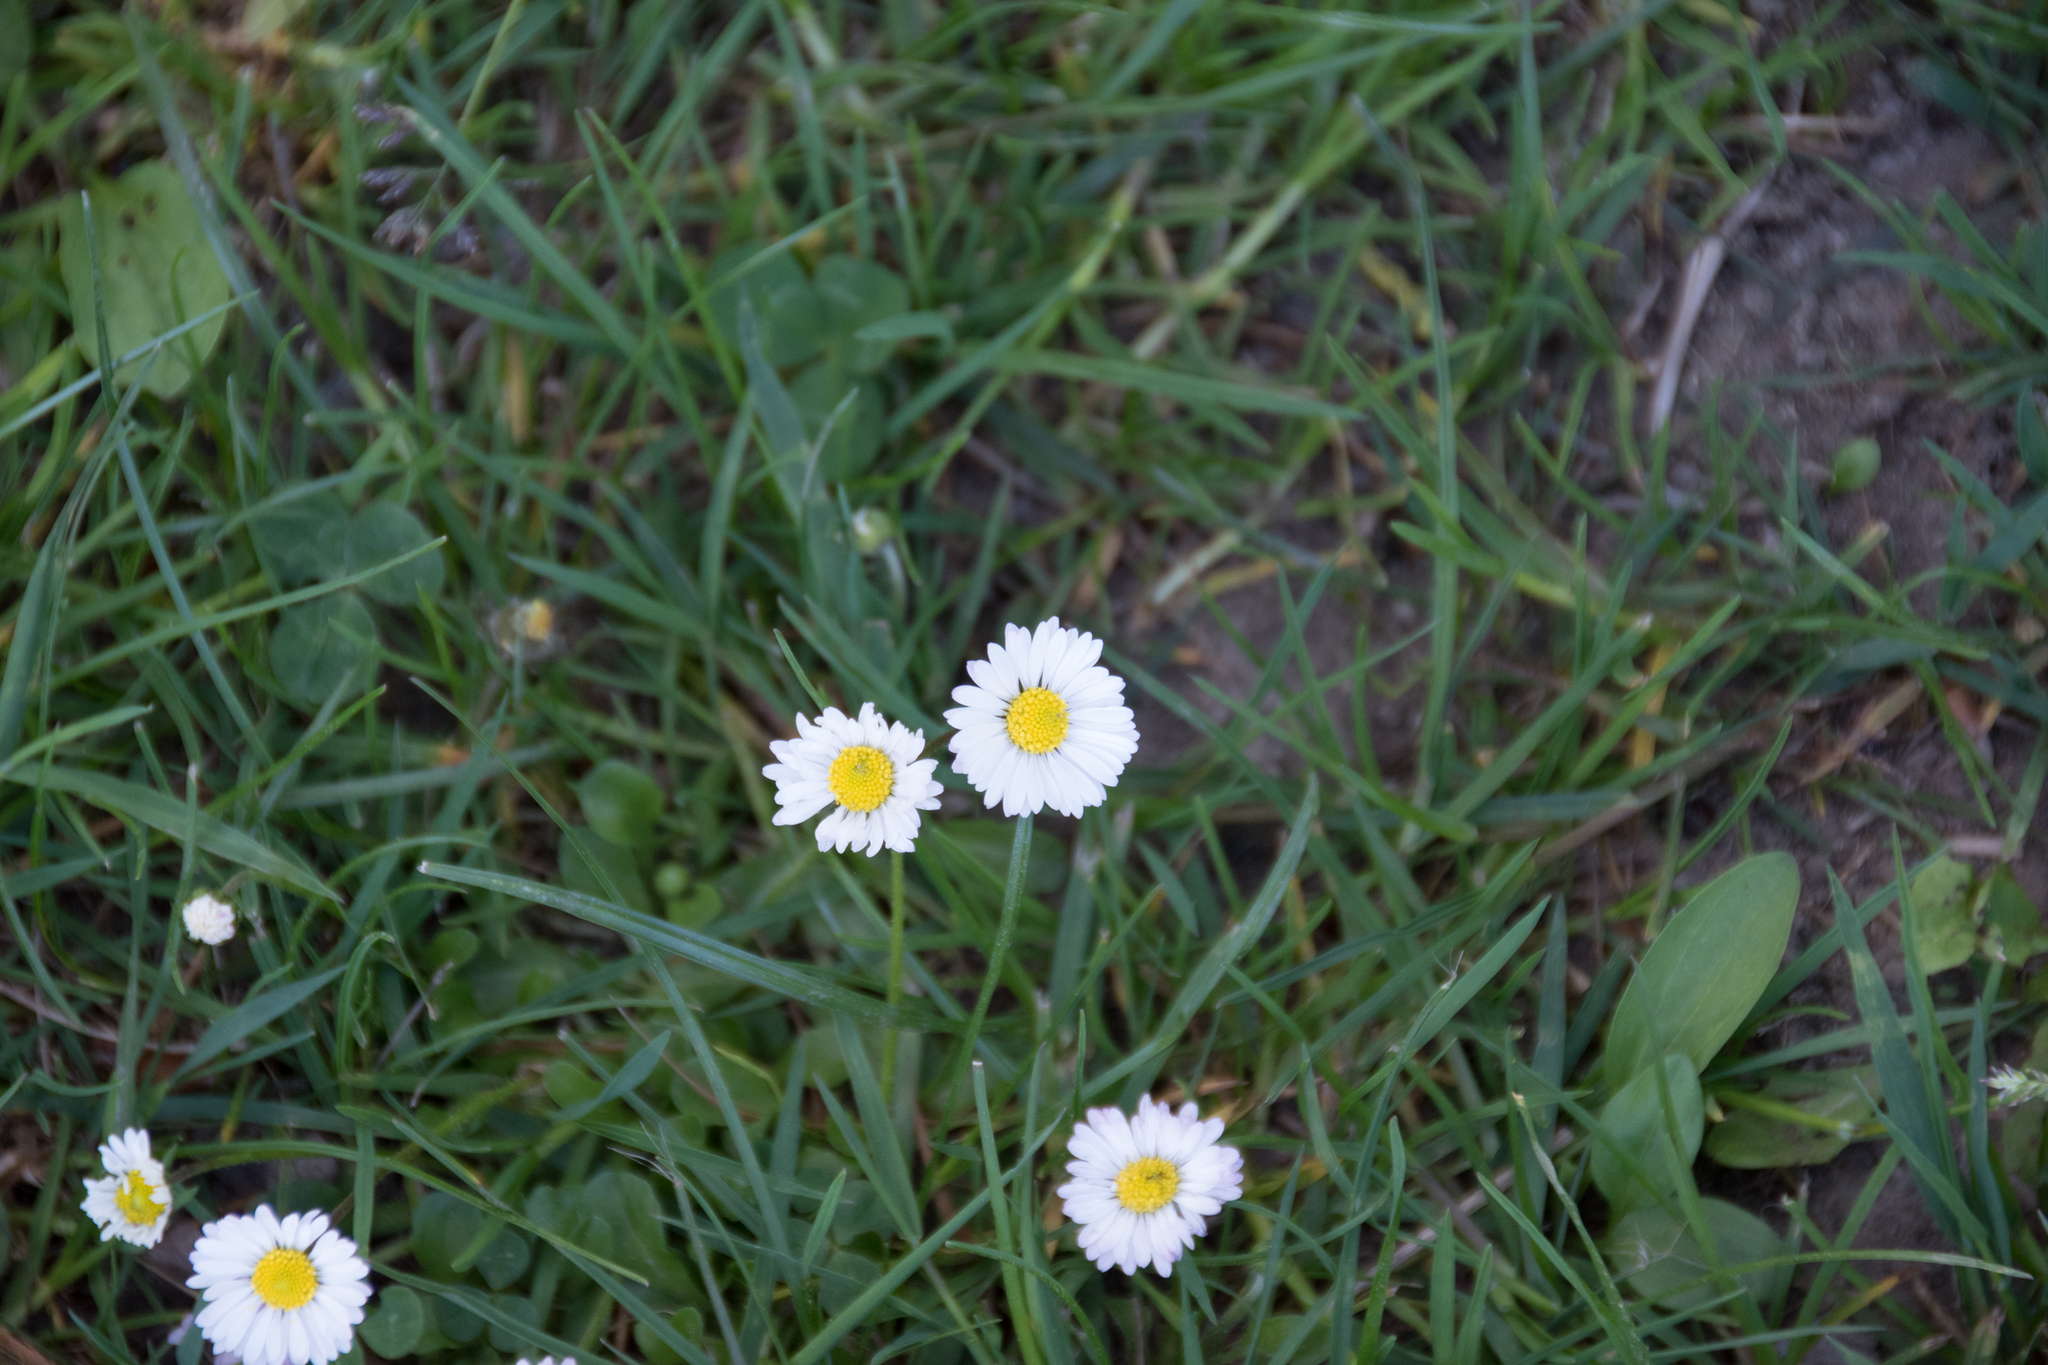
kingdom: Plantae
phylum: Tracheophyta
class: Magnoliopsida
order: Asterales
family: Asteraceae
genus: Bellis
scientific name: Bellis perennis
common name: Lawndaisy
